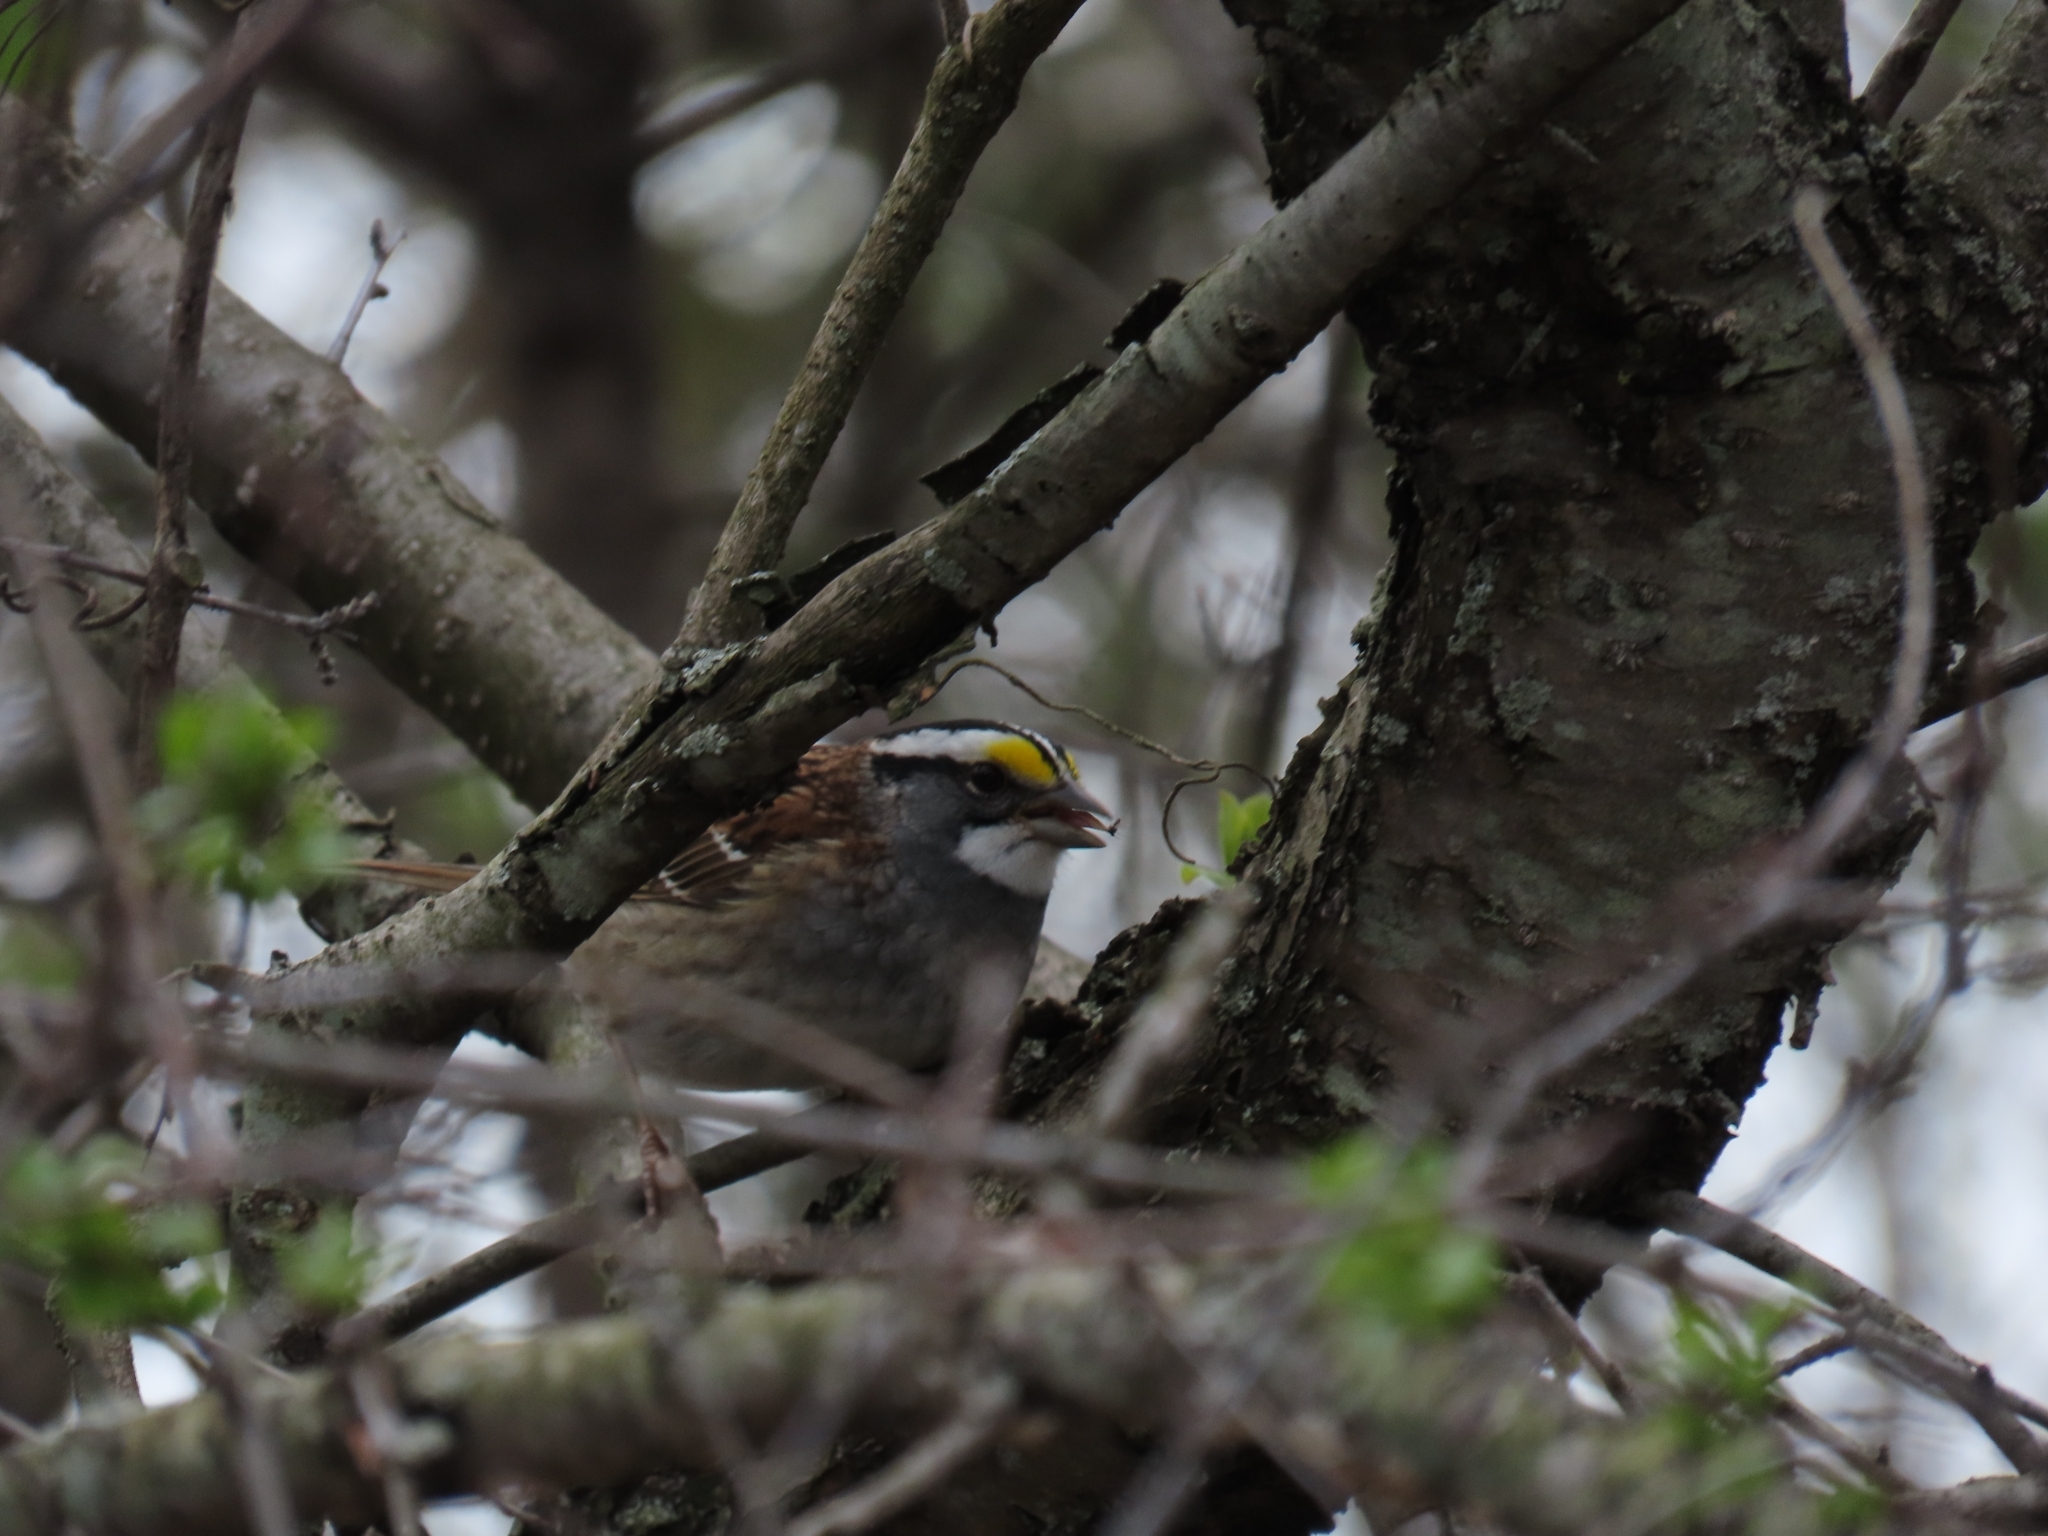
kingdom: Animalia
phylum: Chordata
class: Aves
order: Passeriformes
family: Passerellidae
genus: Zonotrichia
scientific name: Zonotrichia albicollis
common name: White-throated sparrow
